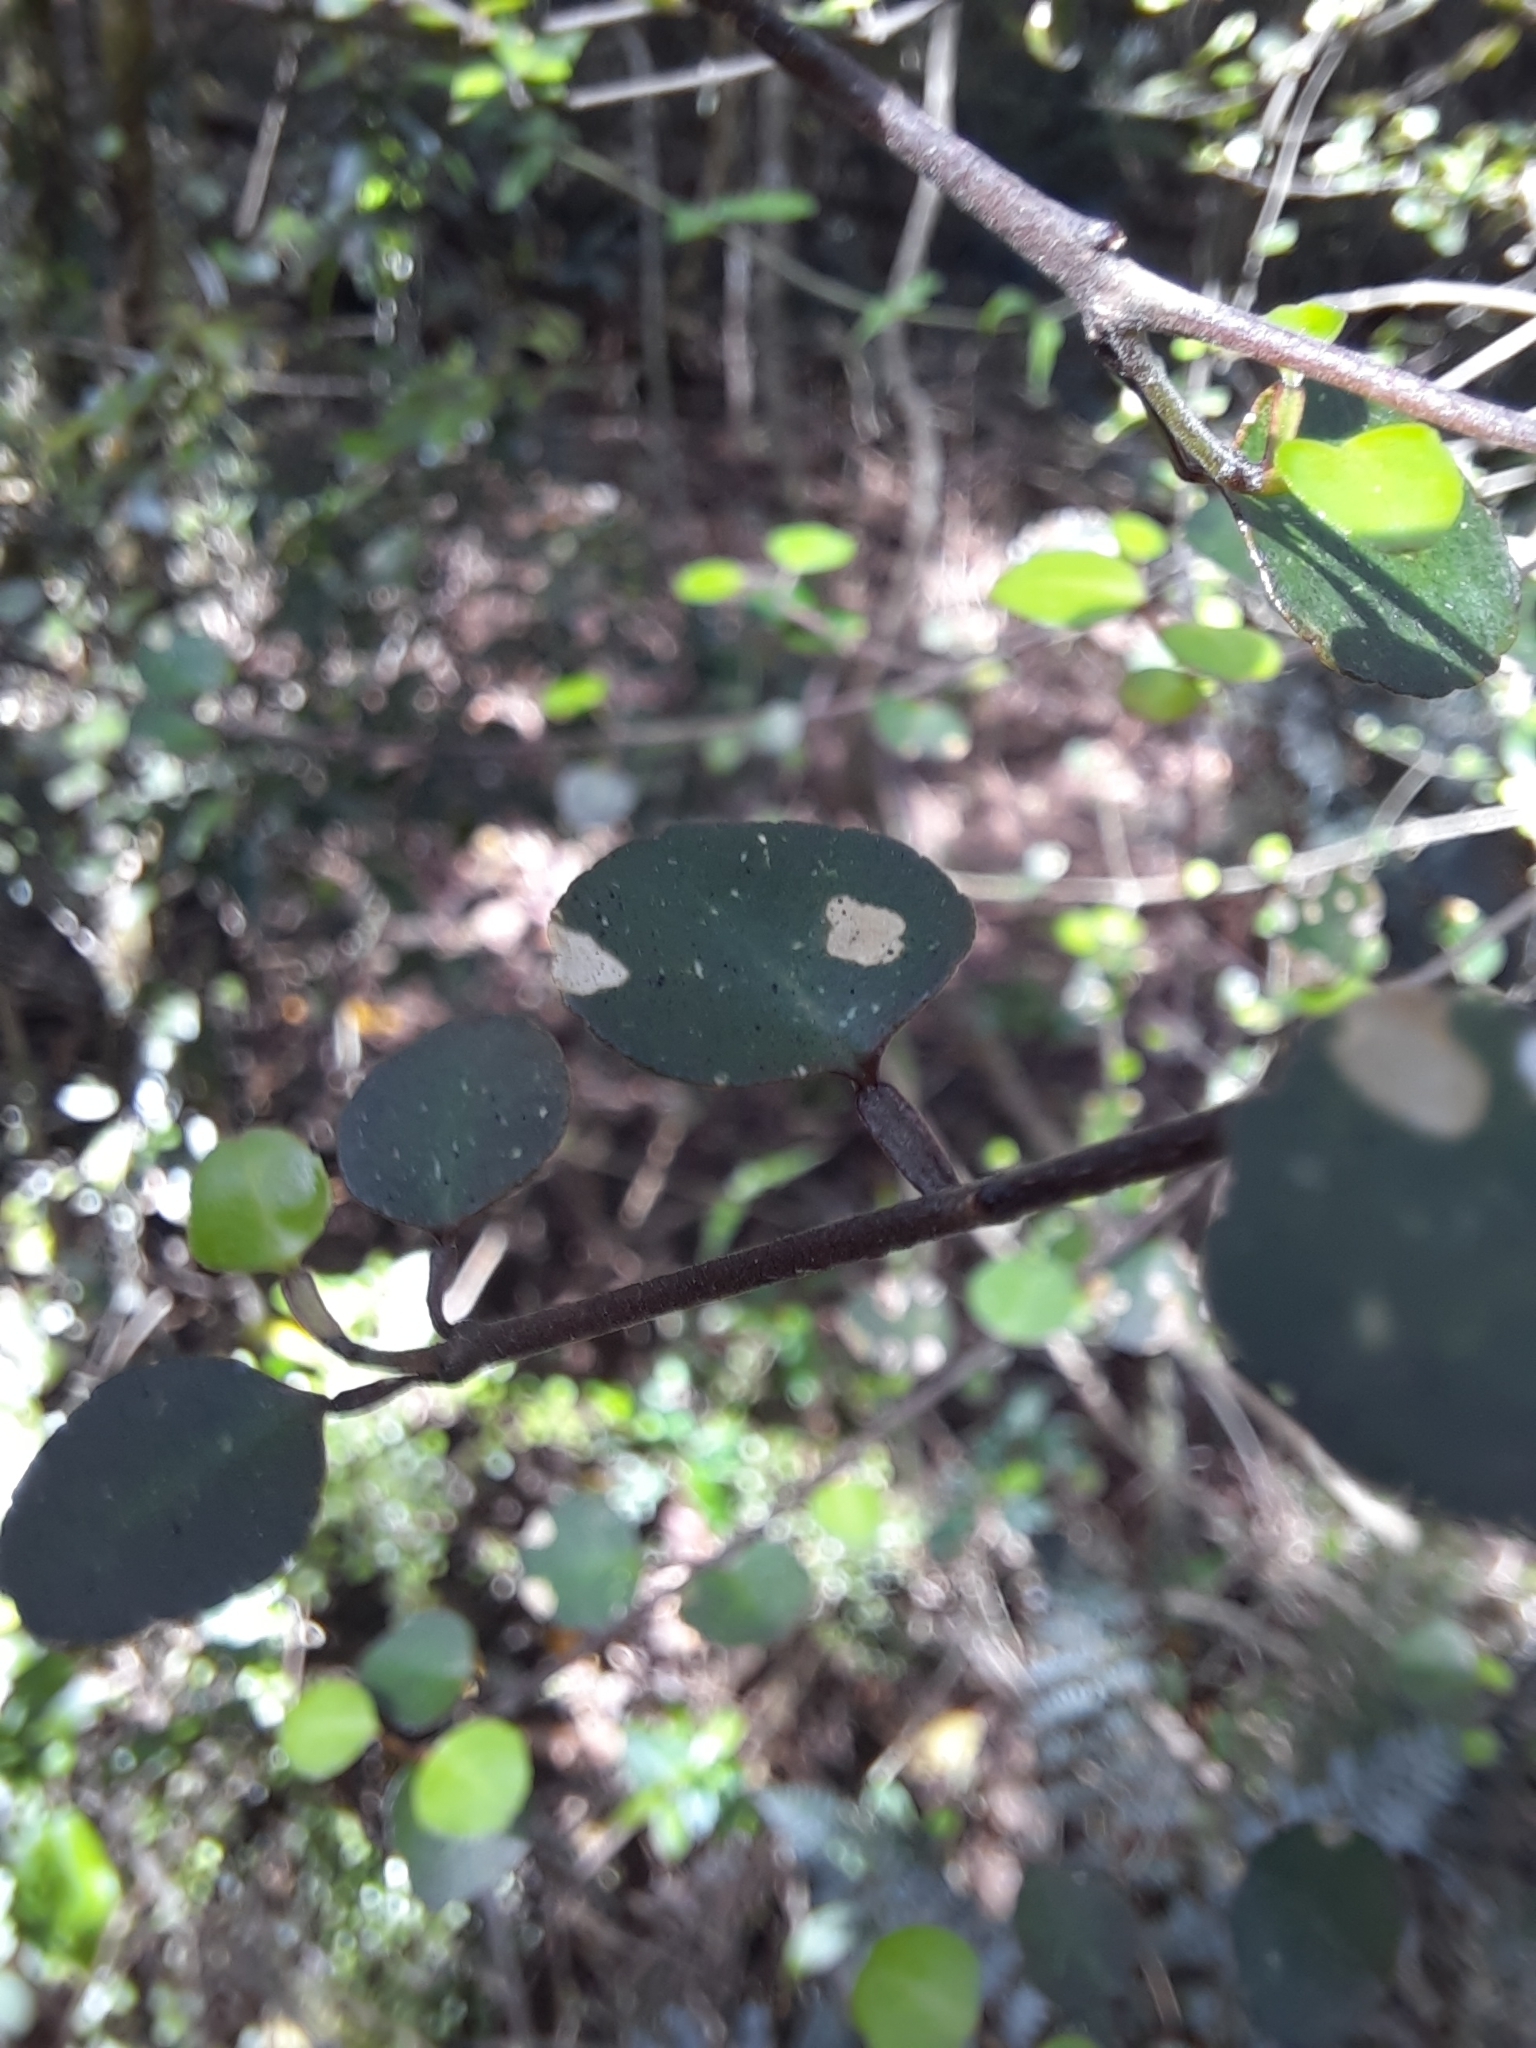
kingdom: Plantae
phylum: Tracheophyta
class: Magnoliopsida
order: Sapindales
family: Rutaceae
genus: Melicope
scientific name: Melicope simplex
